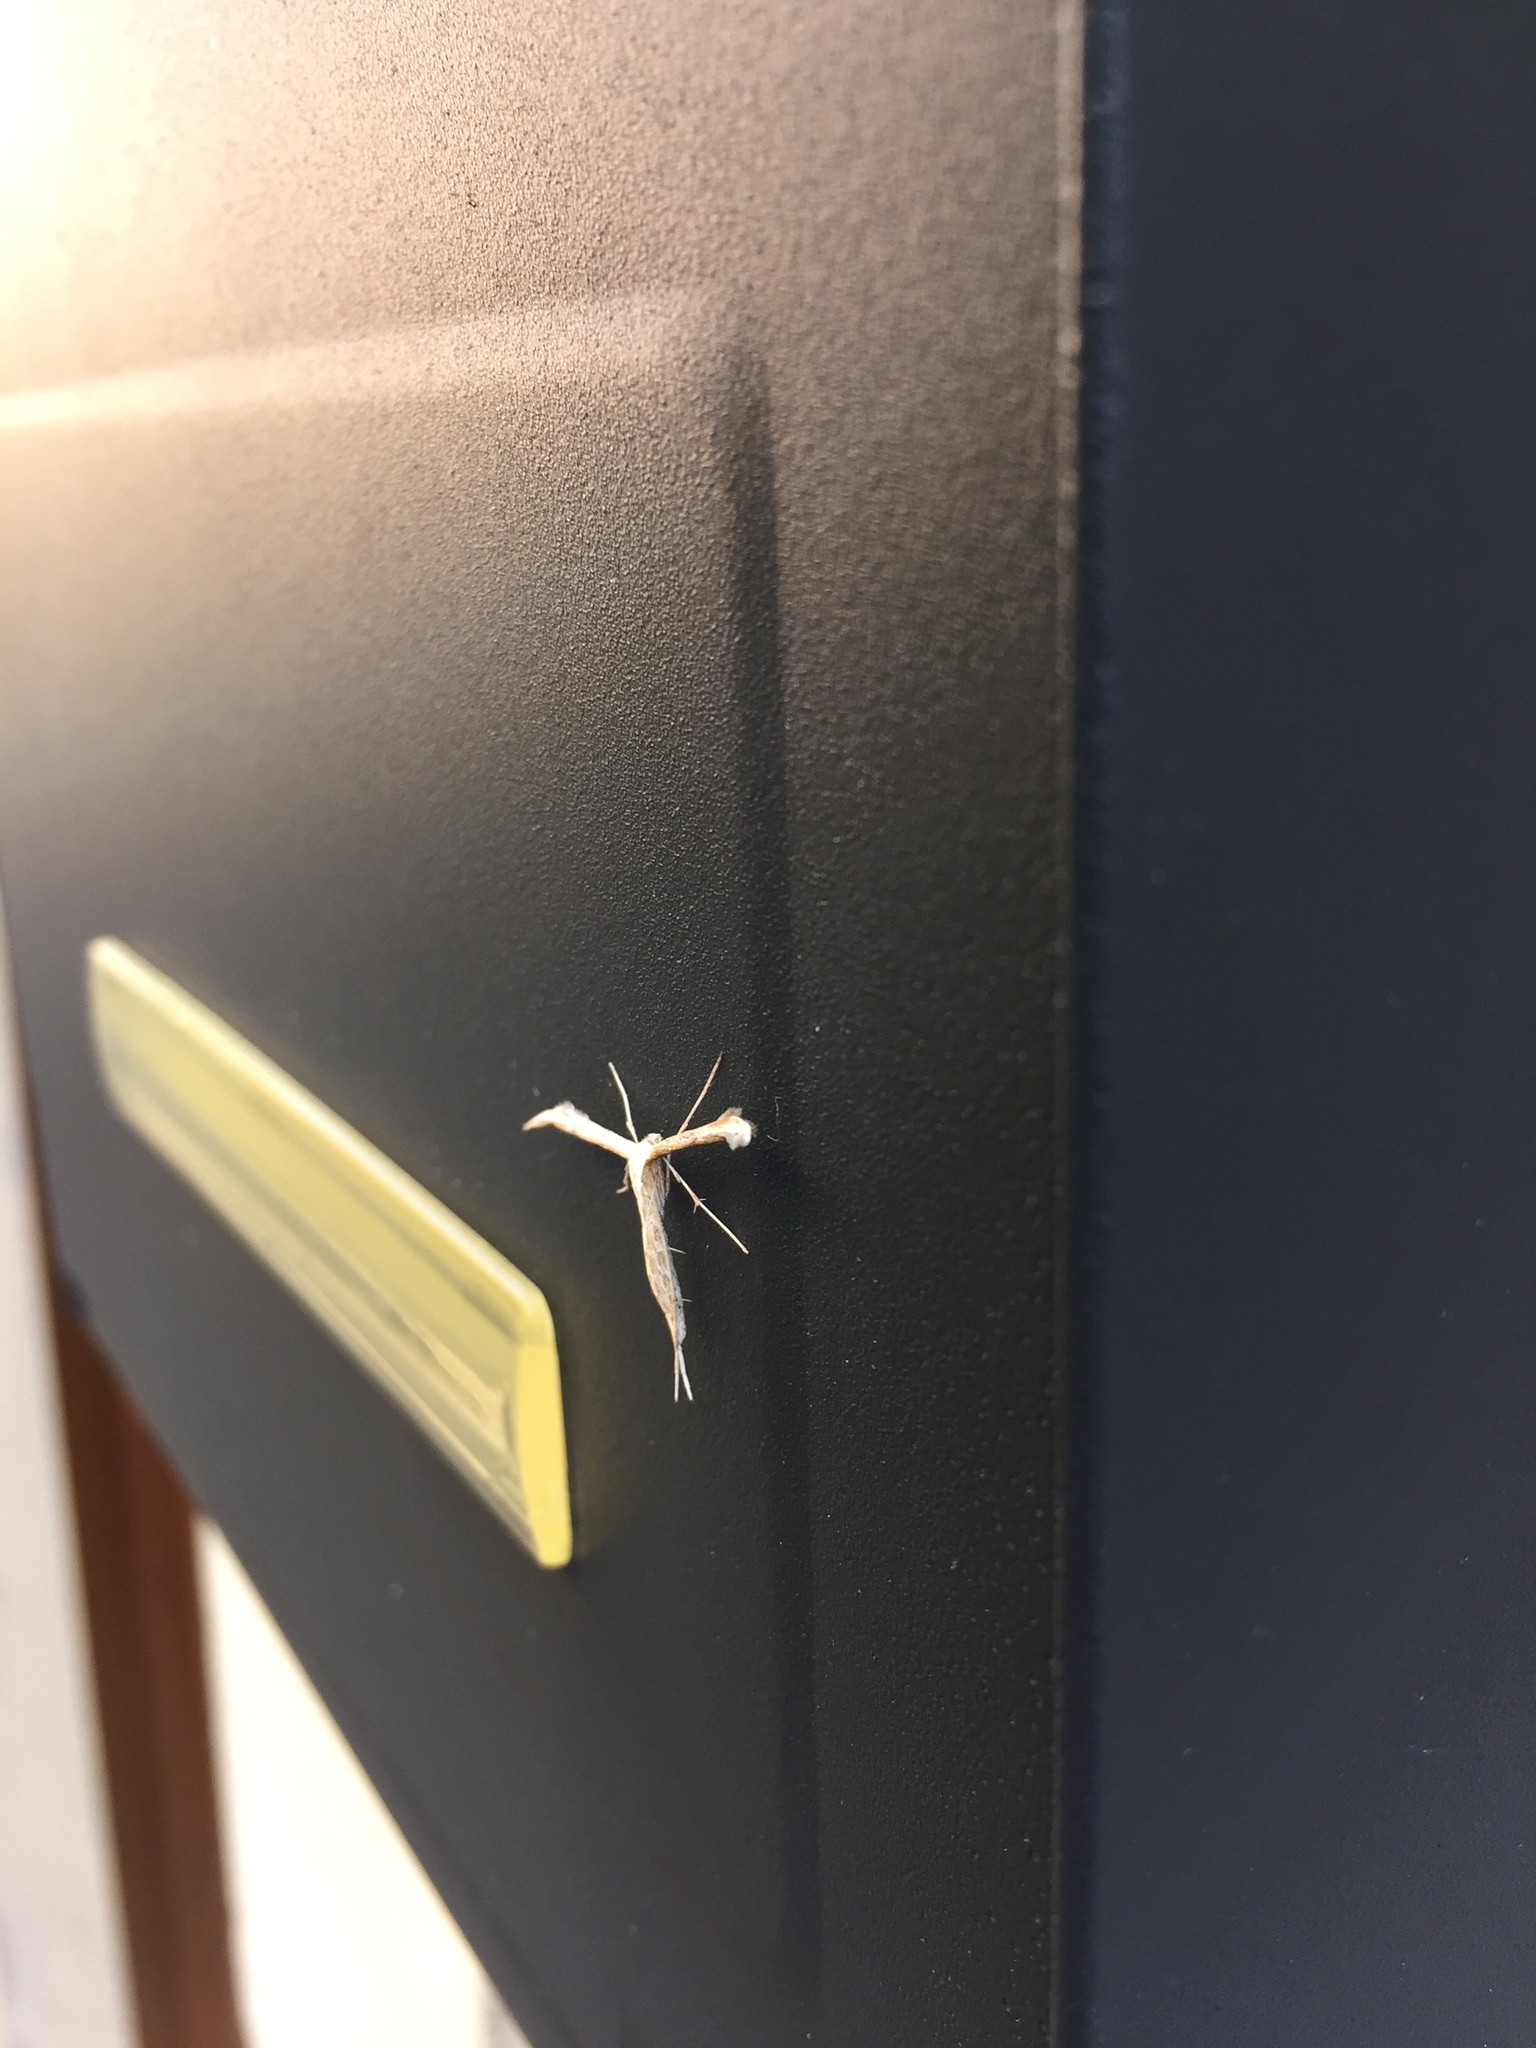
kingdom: Animalia
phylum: Arthropoda
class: Insecta
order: Lepidoptera
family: Pterophoridae
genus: Emmelina
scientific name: Emmelina monodactyla
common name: Common plume
